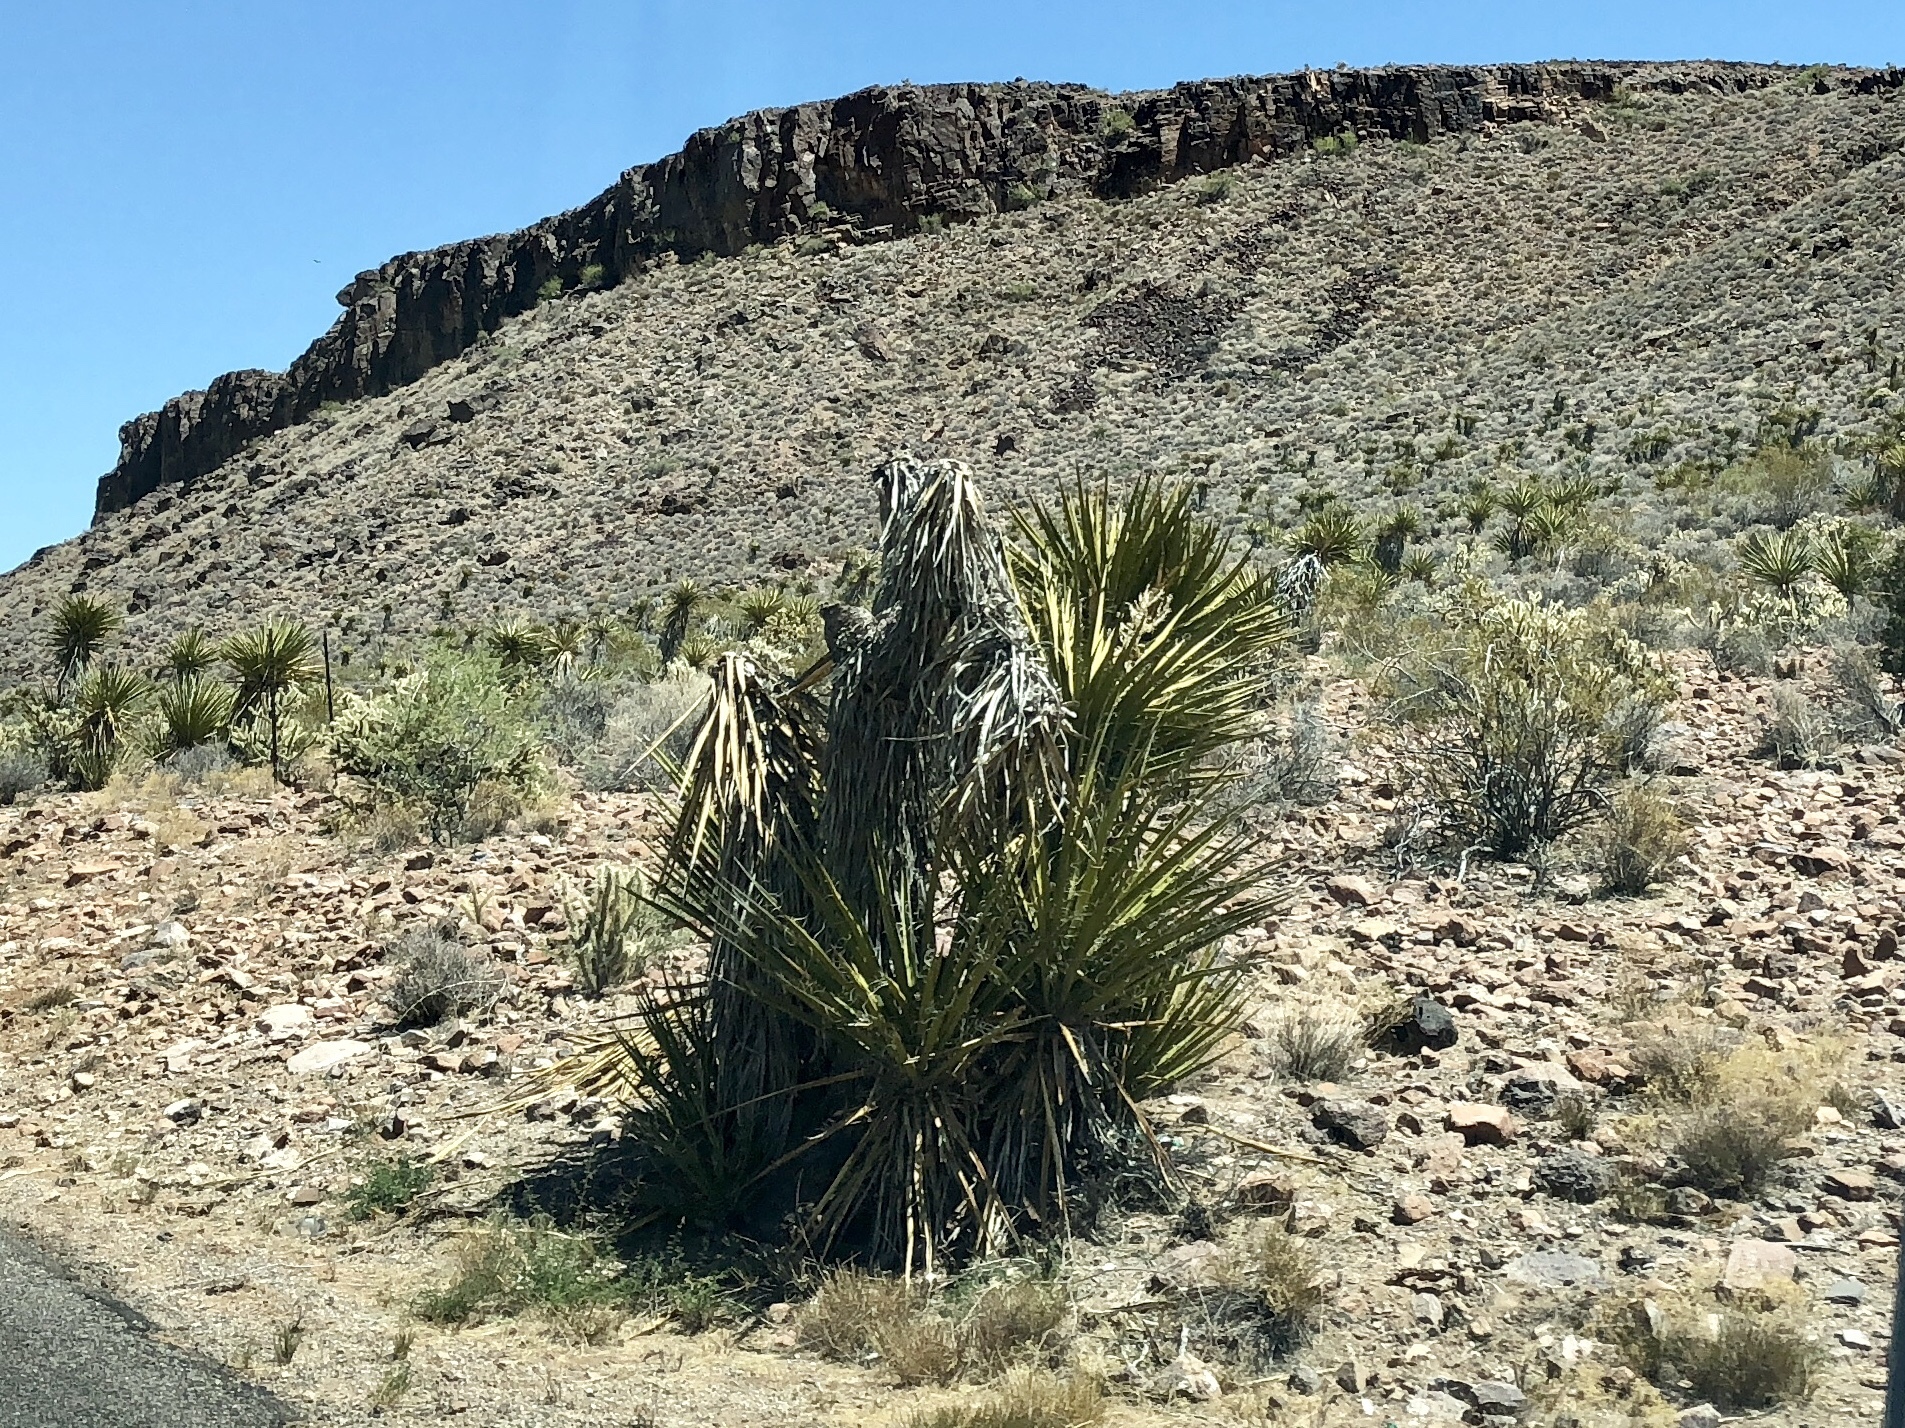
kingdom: Plantae
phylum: Tracheophyta
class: Liliopsida
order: Asparagales
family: Asparagaceae
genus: Yucca
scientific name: Yucca schidigera
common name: Mojave yucca
